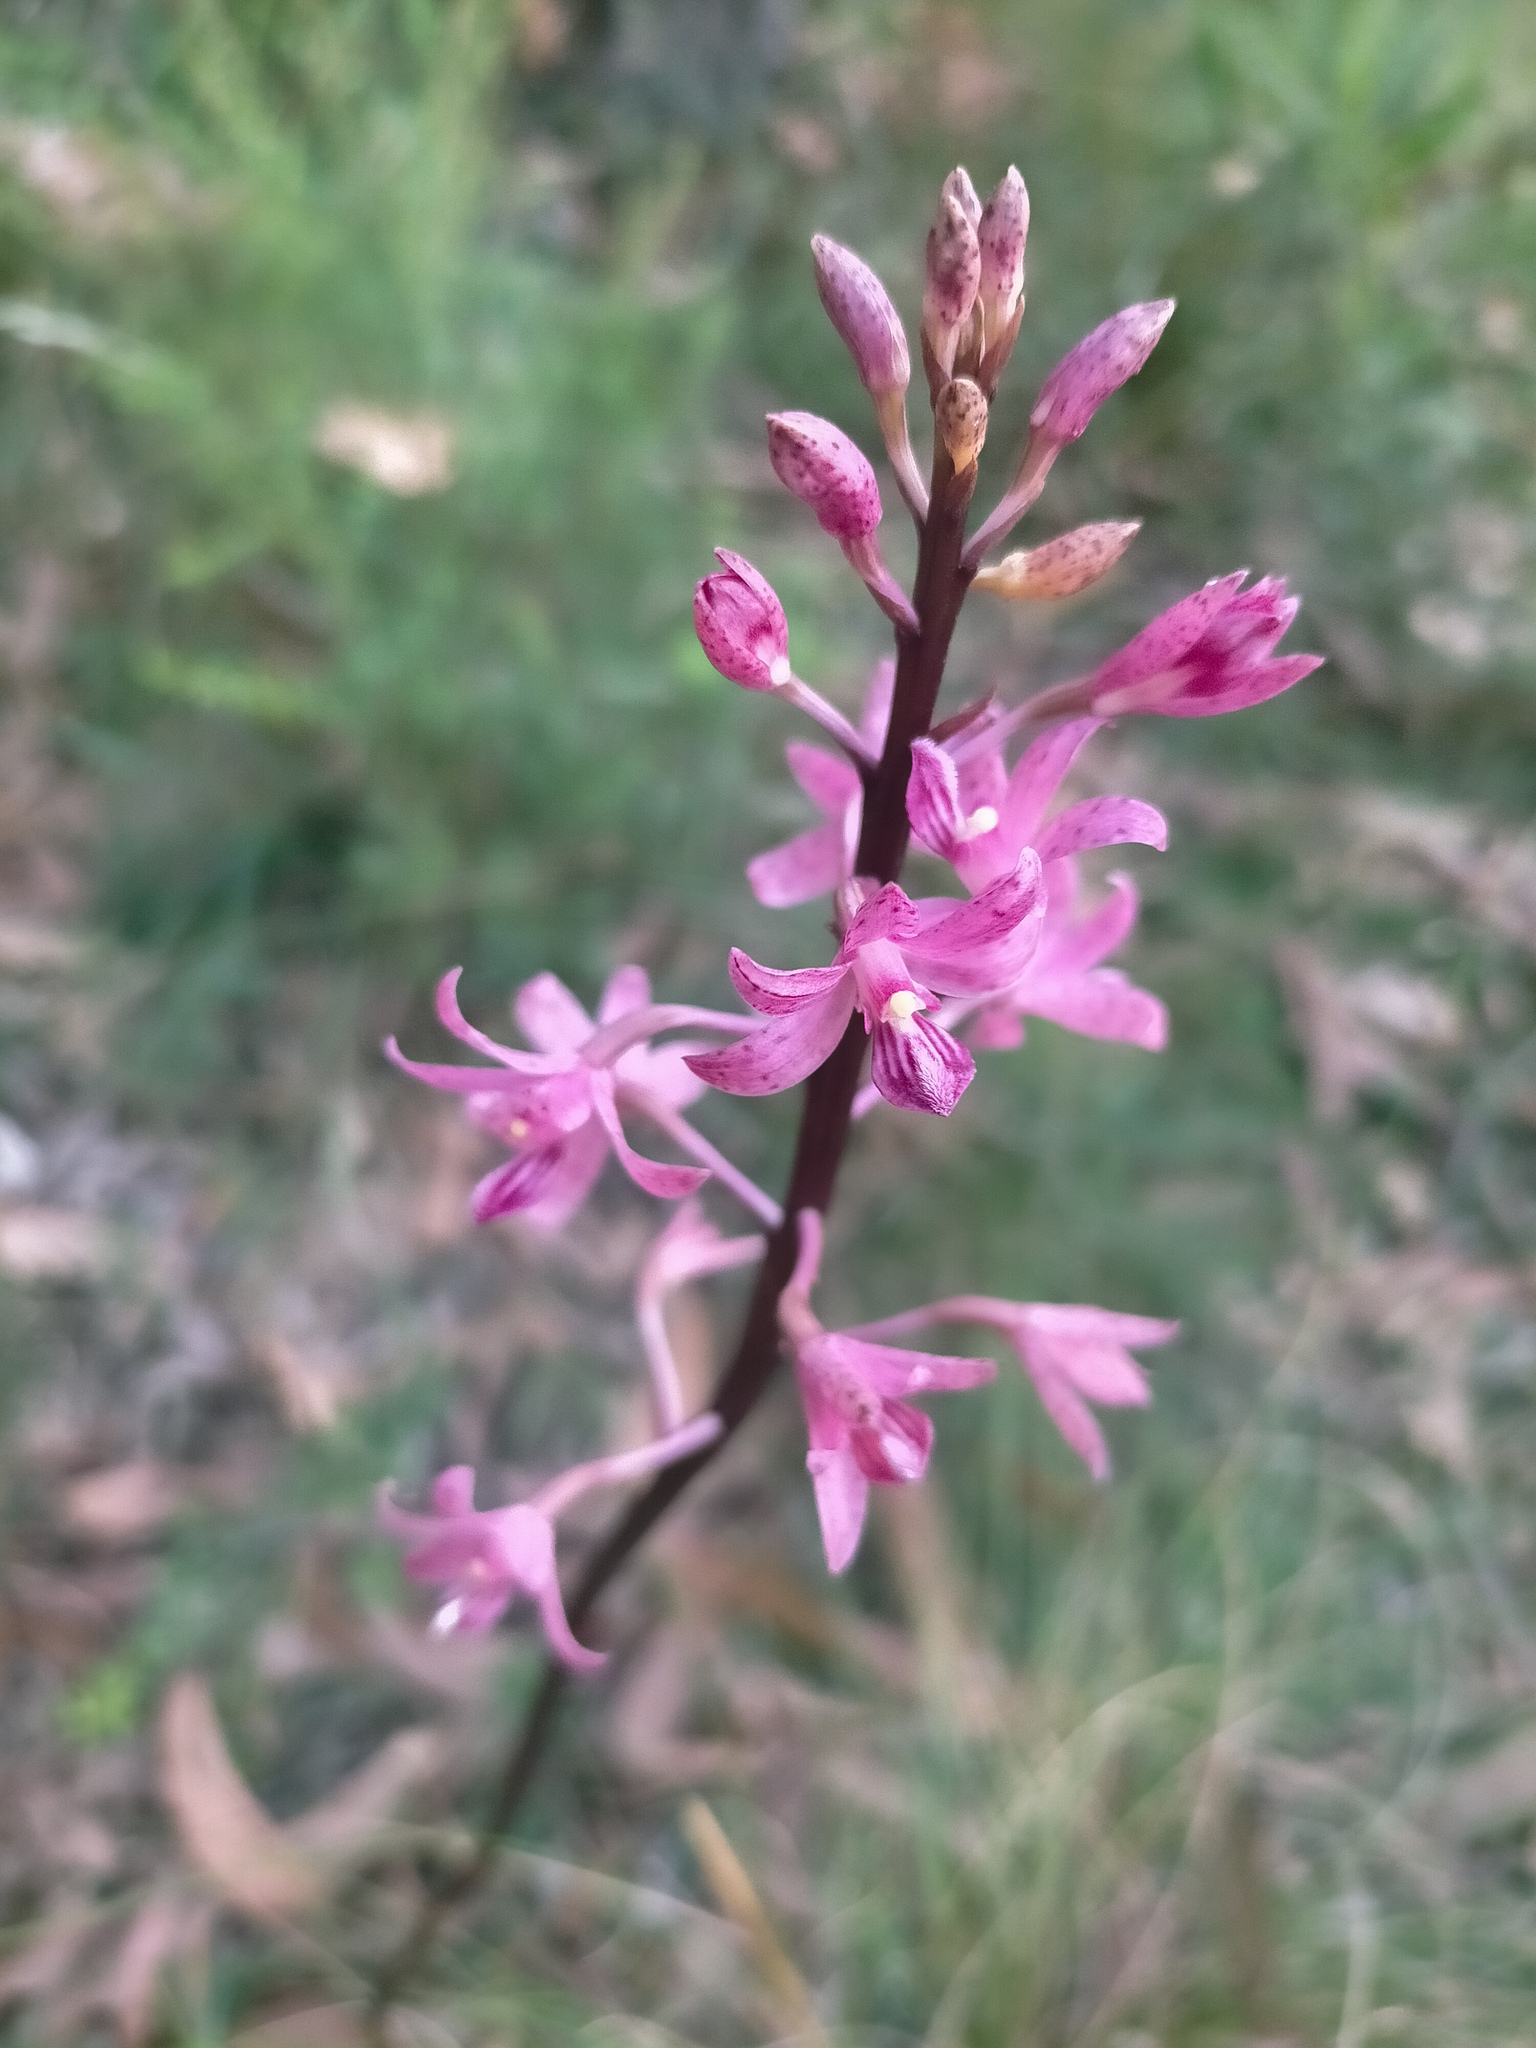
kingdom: Plantae
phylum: Tracheophyta
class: Liliopsida
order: Asparagales
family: Orchidaceae
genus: Dipodium
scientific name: Dipodium roseum
